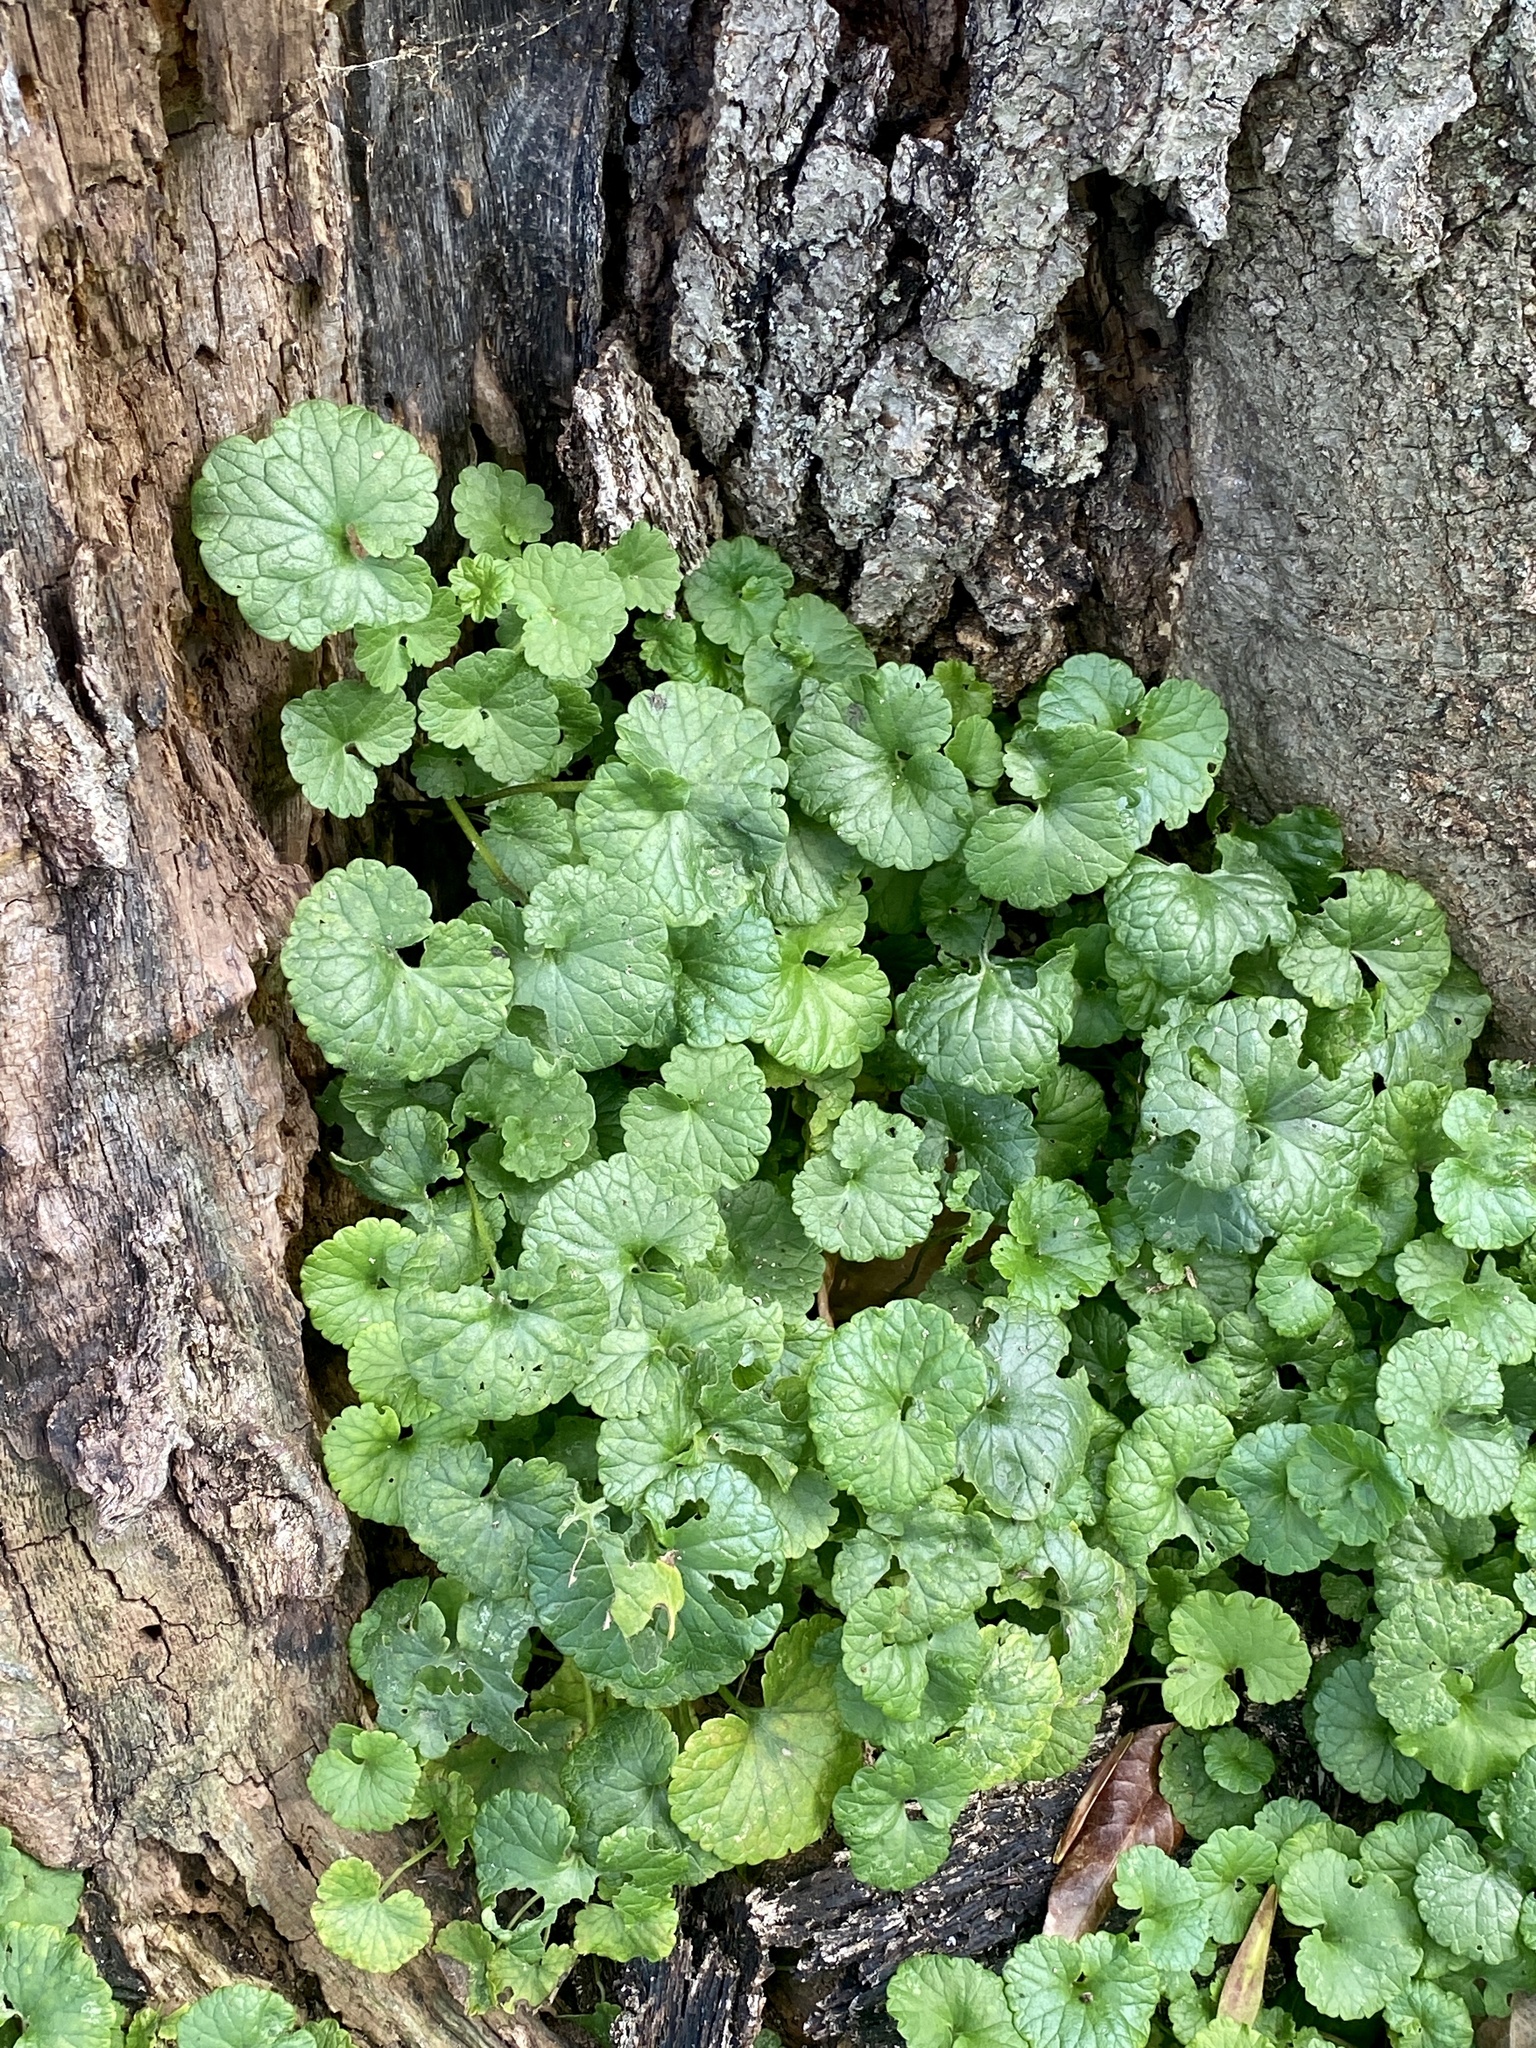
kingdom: Plantae
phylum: Tracheophyta
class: Magnoliopsida
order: Lamiales
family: Lamiaceae
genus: Glechoma
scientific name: Glechoma hederacea
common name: Ground ivy
